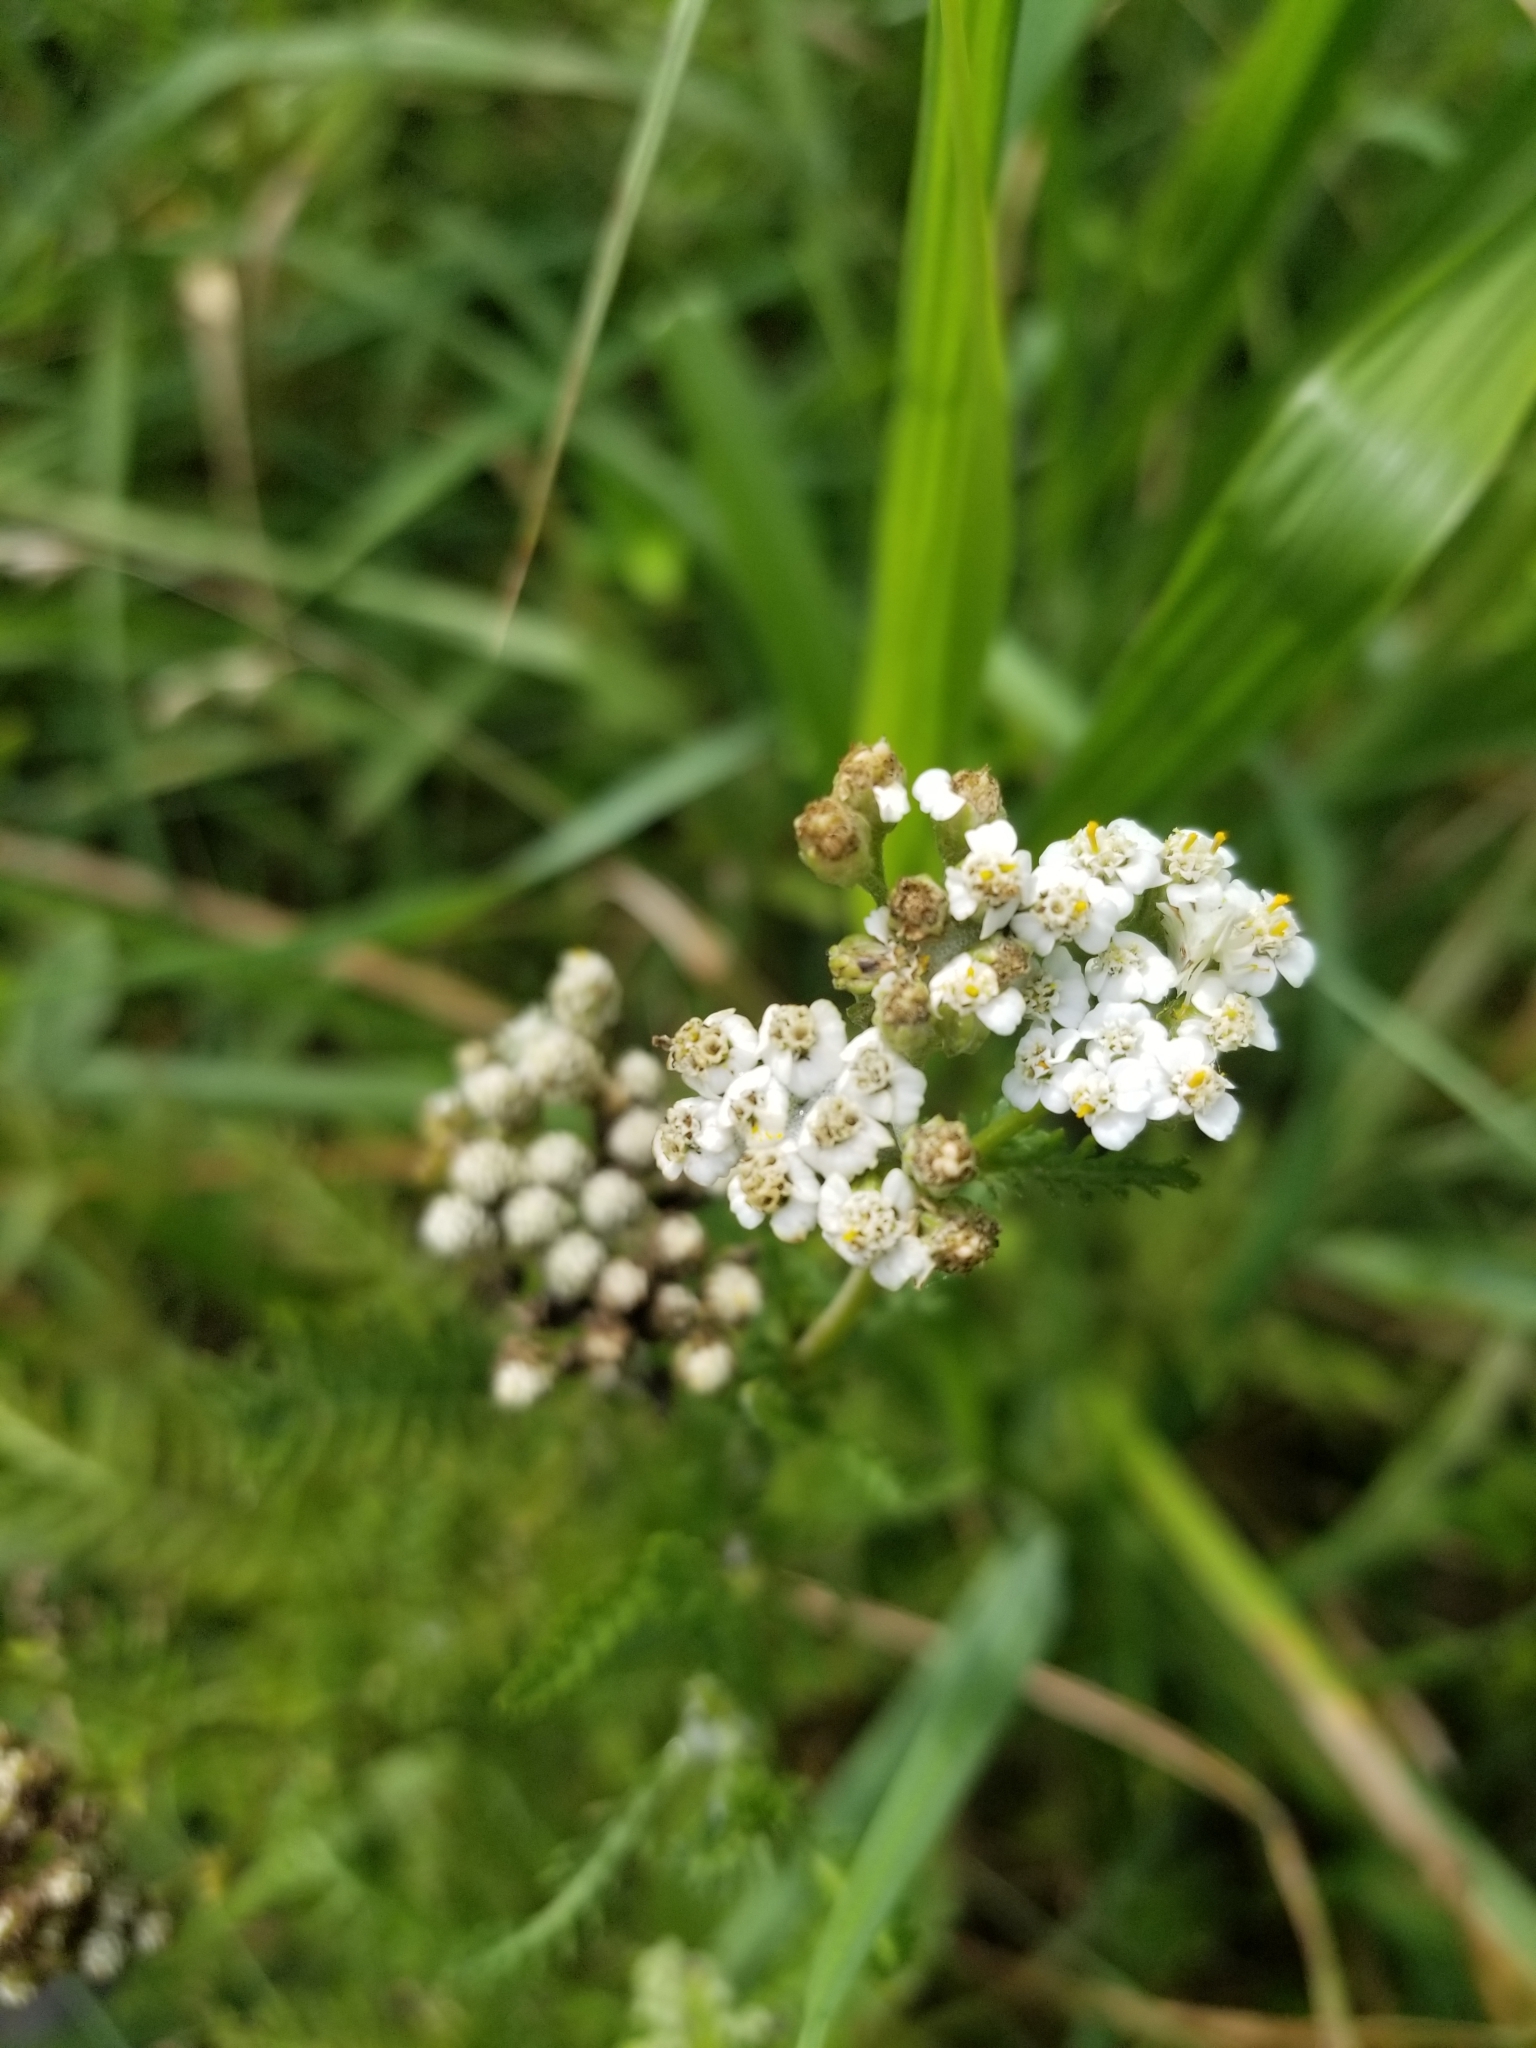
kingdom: Plantae
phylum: Tracheophyta
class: Magnoliopsida
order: Asterales
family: Asteraceae
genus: Achillea
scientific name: Achillea millefolium
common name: Yarrow
